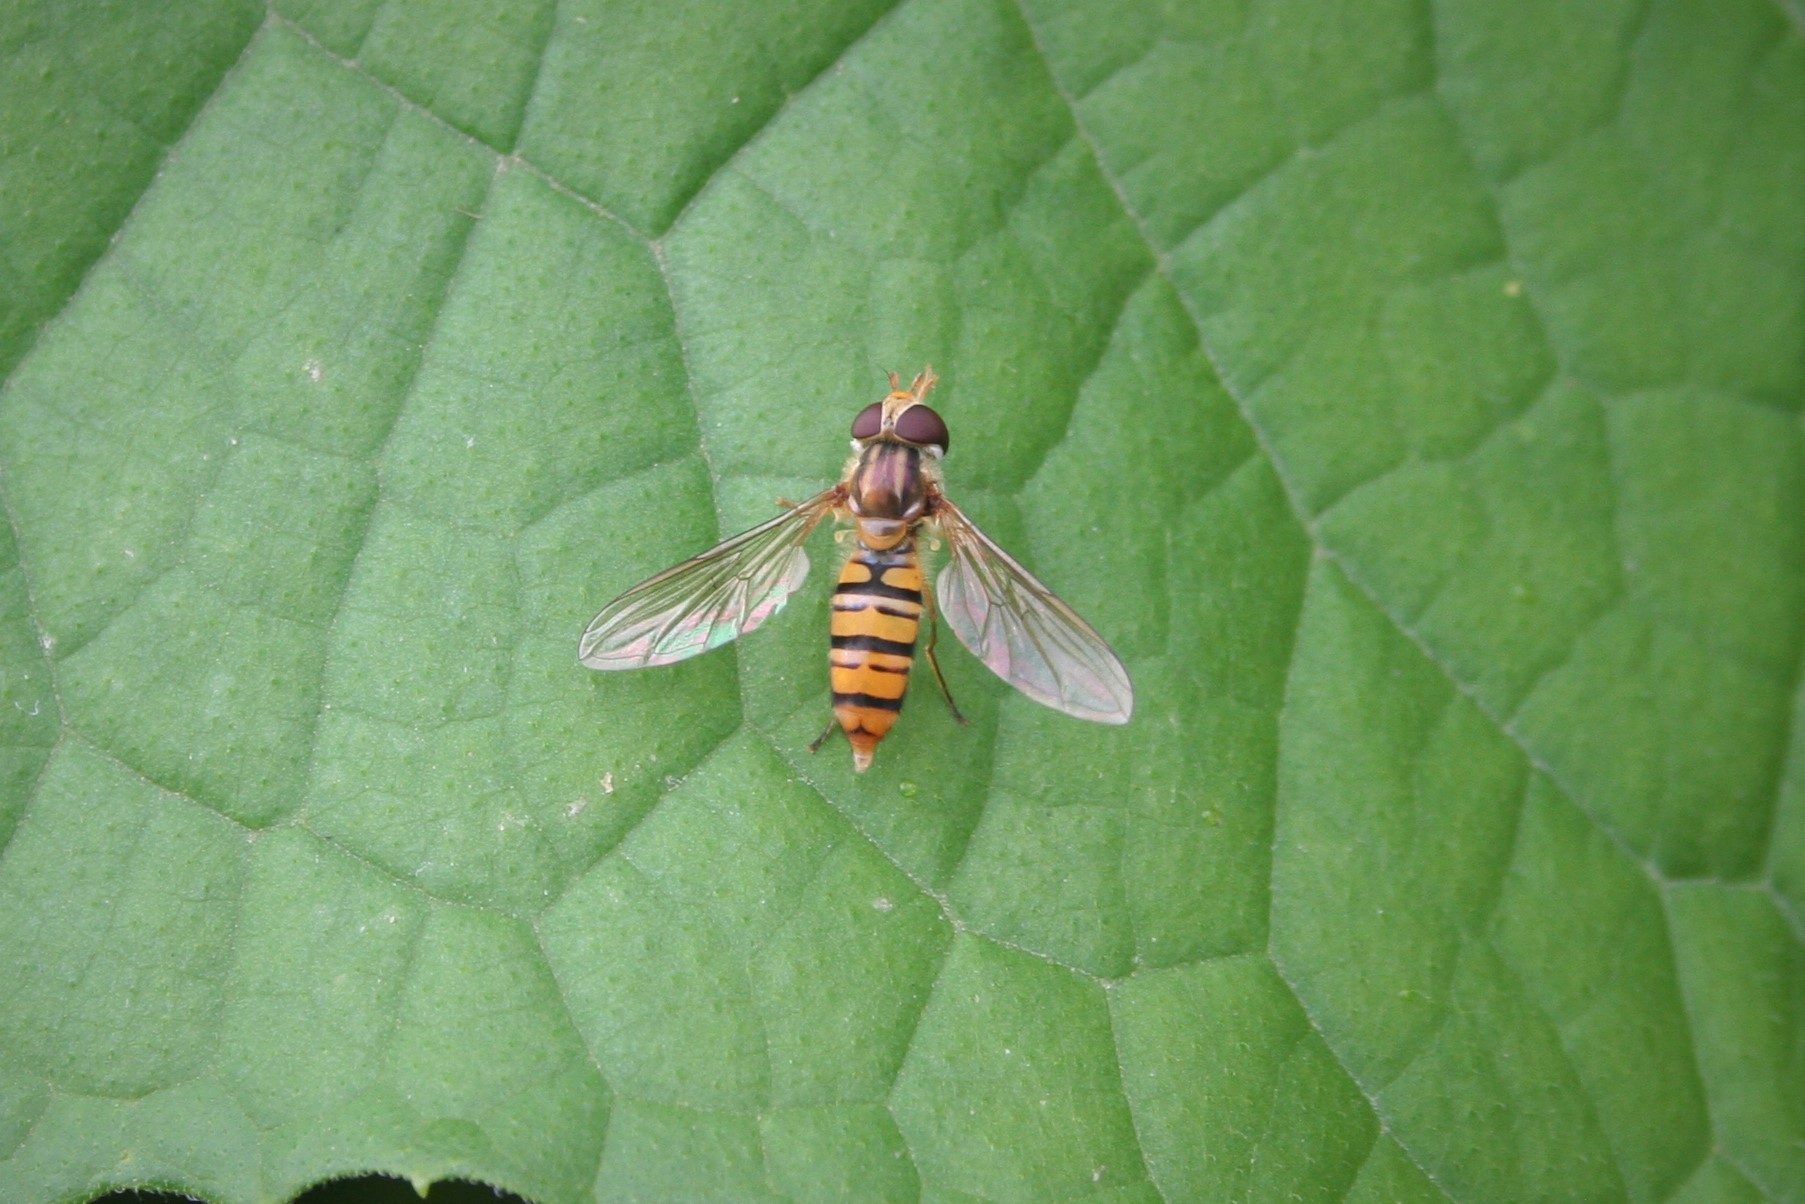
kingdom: Animalia
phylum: Arthropoda
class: Insecta
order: Diptera
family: Syrphidae
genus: Episyrphus
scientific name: Episyrphus balteatus
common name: Marmalade hoverfly
